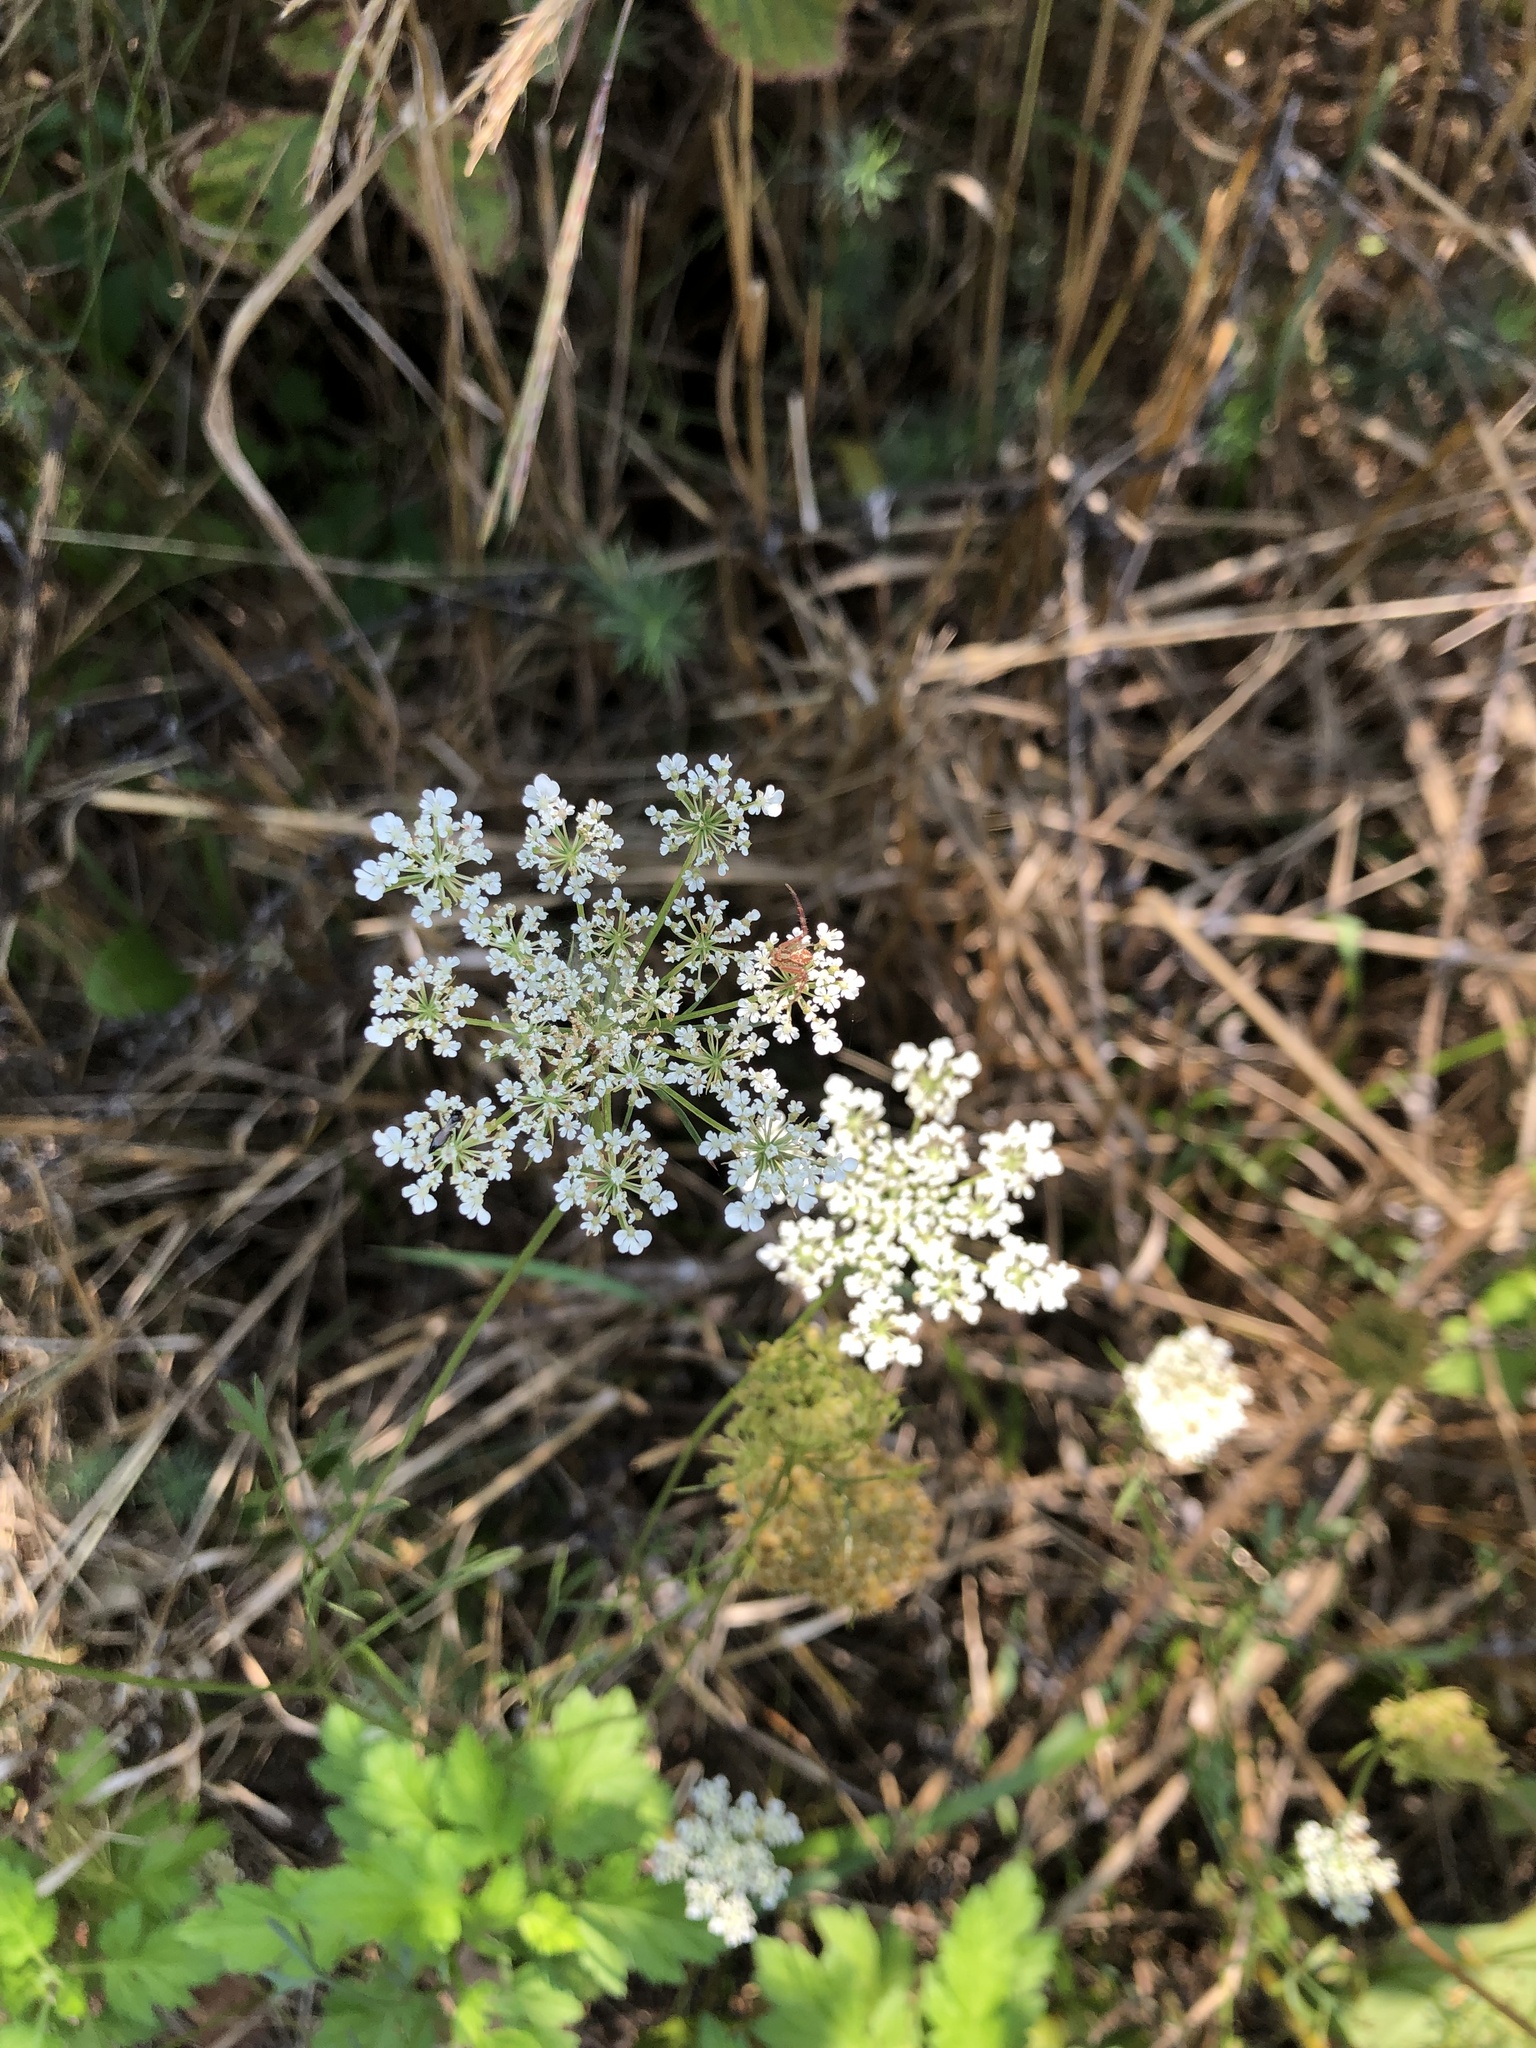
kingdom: Plantae
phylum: Tracheophyta
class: Magnoliopsida
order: Apiales
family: Apiaceae
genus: Daucus
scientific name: Daucus carota
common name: Wild carrot
